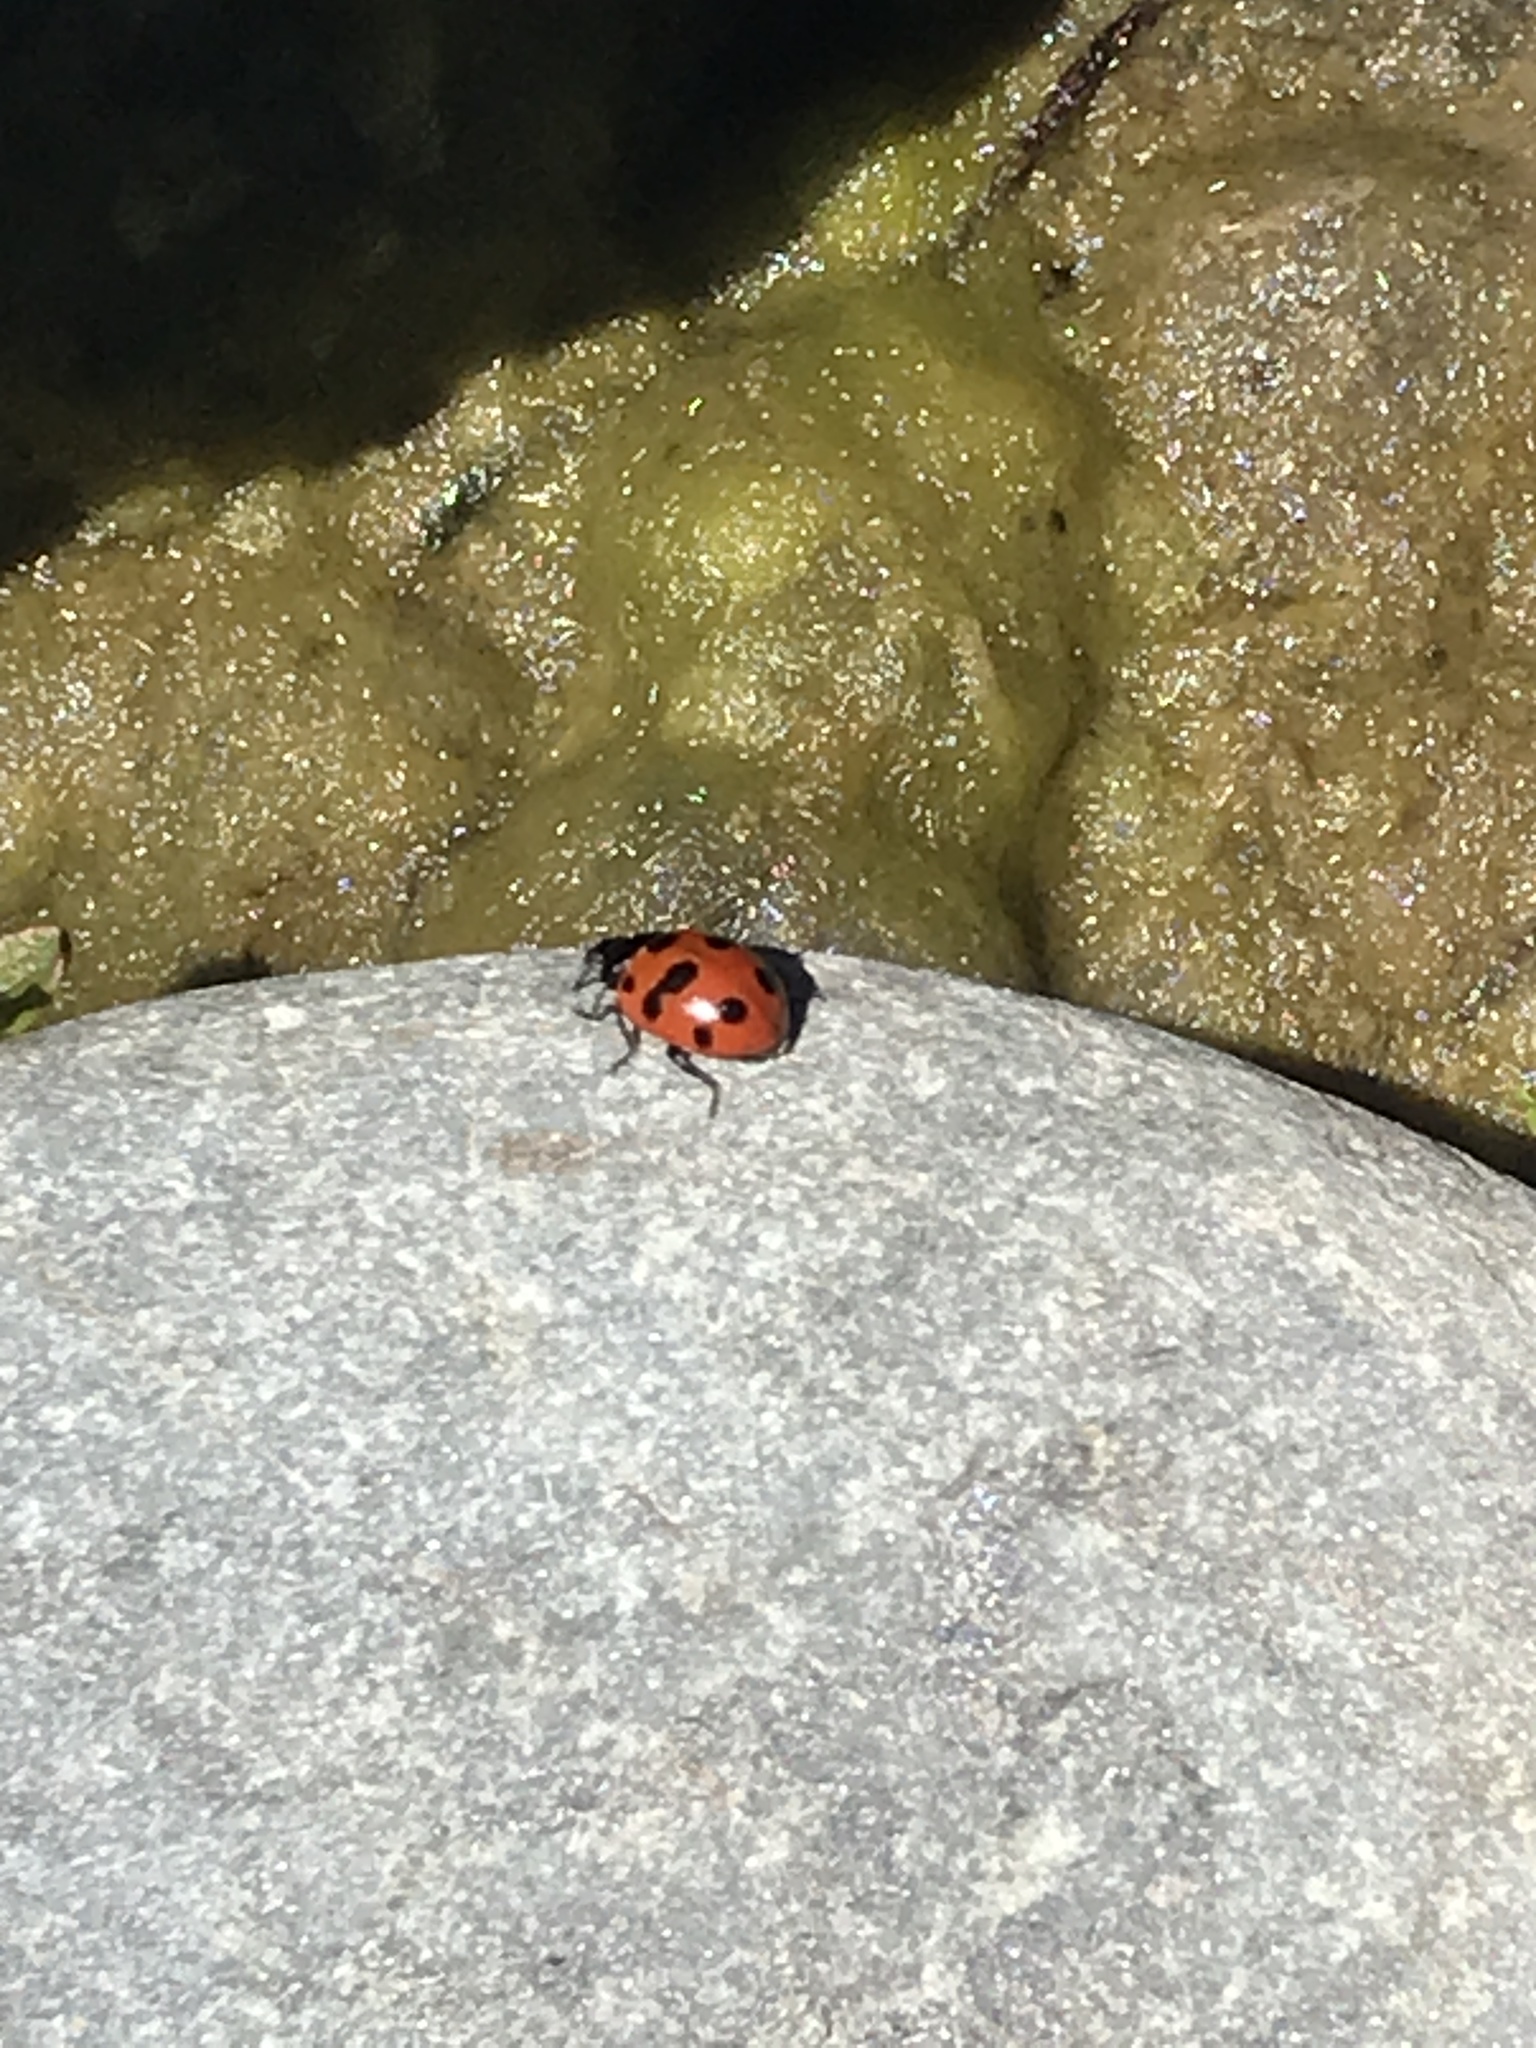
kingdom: Animalia
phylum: Arthropoda
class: Insecta
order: Coleoptera
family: Coccinellidae
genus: Coccinella
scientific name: Coccinella undecimpunctata
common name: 11-spot ladybird
